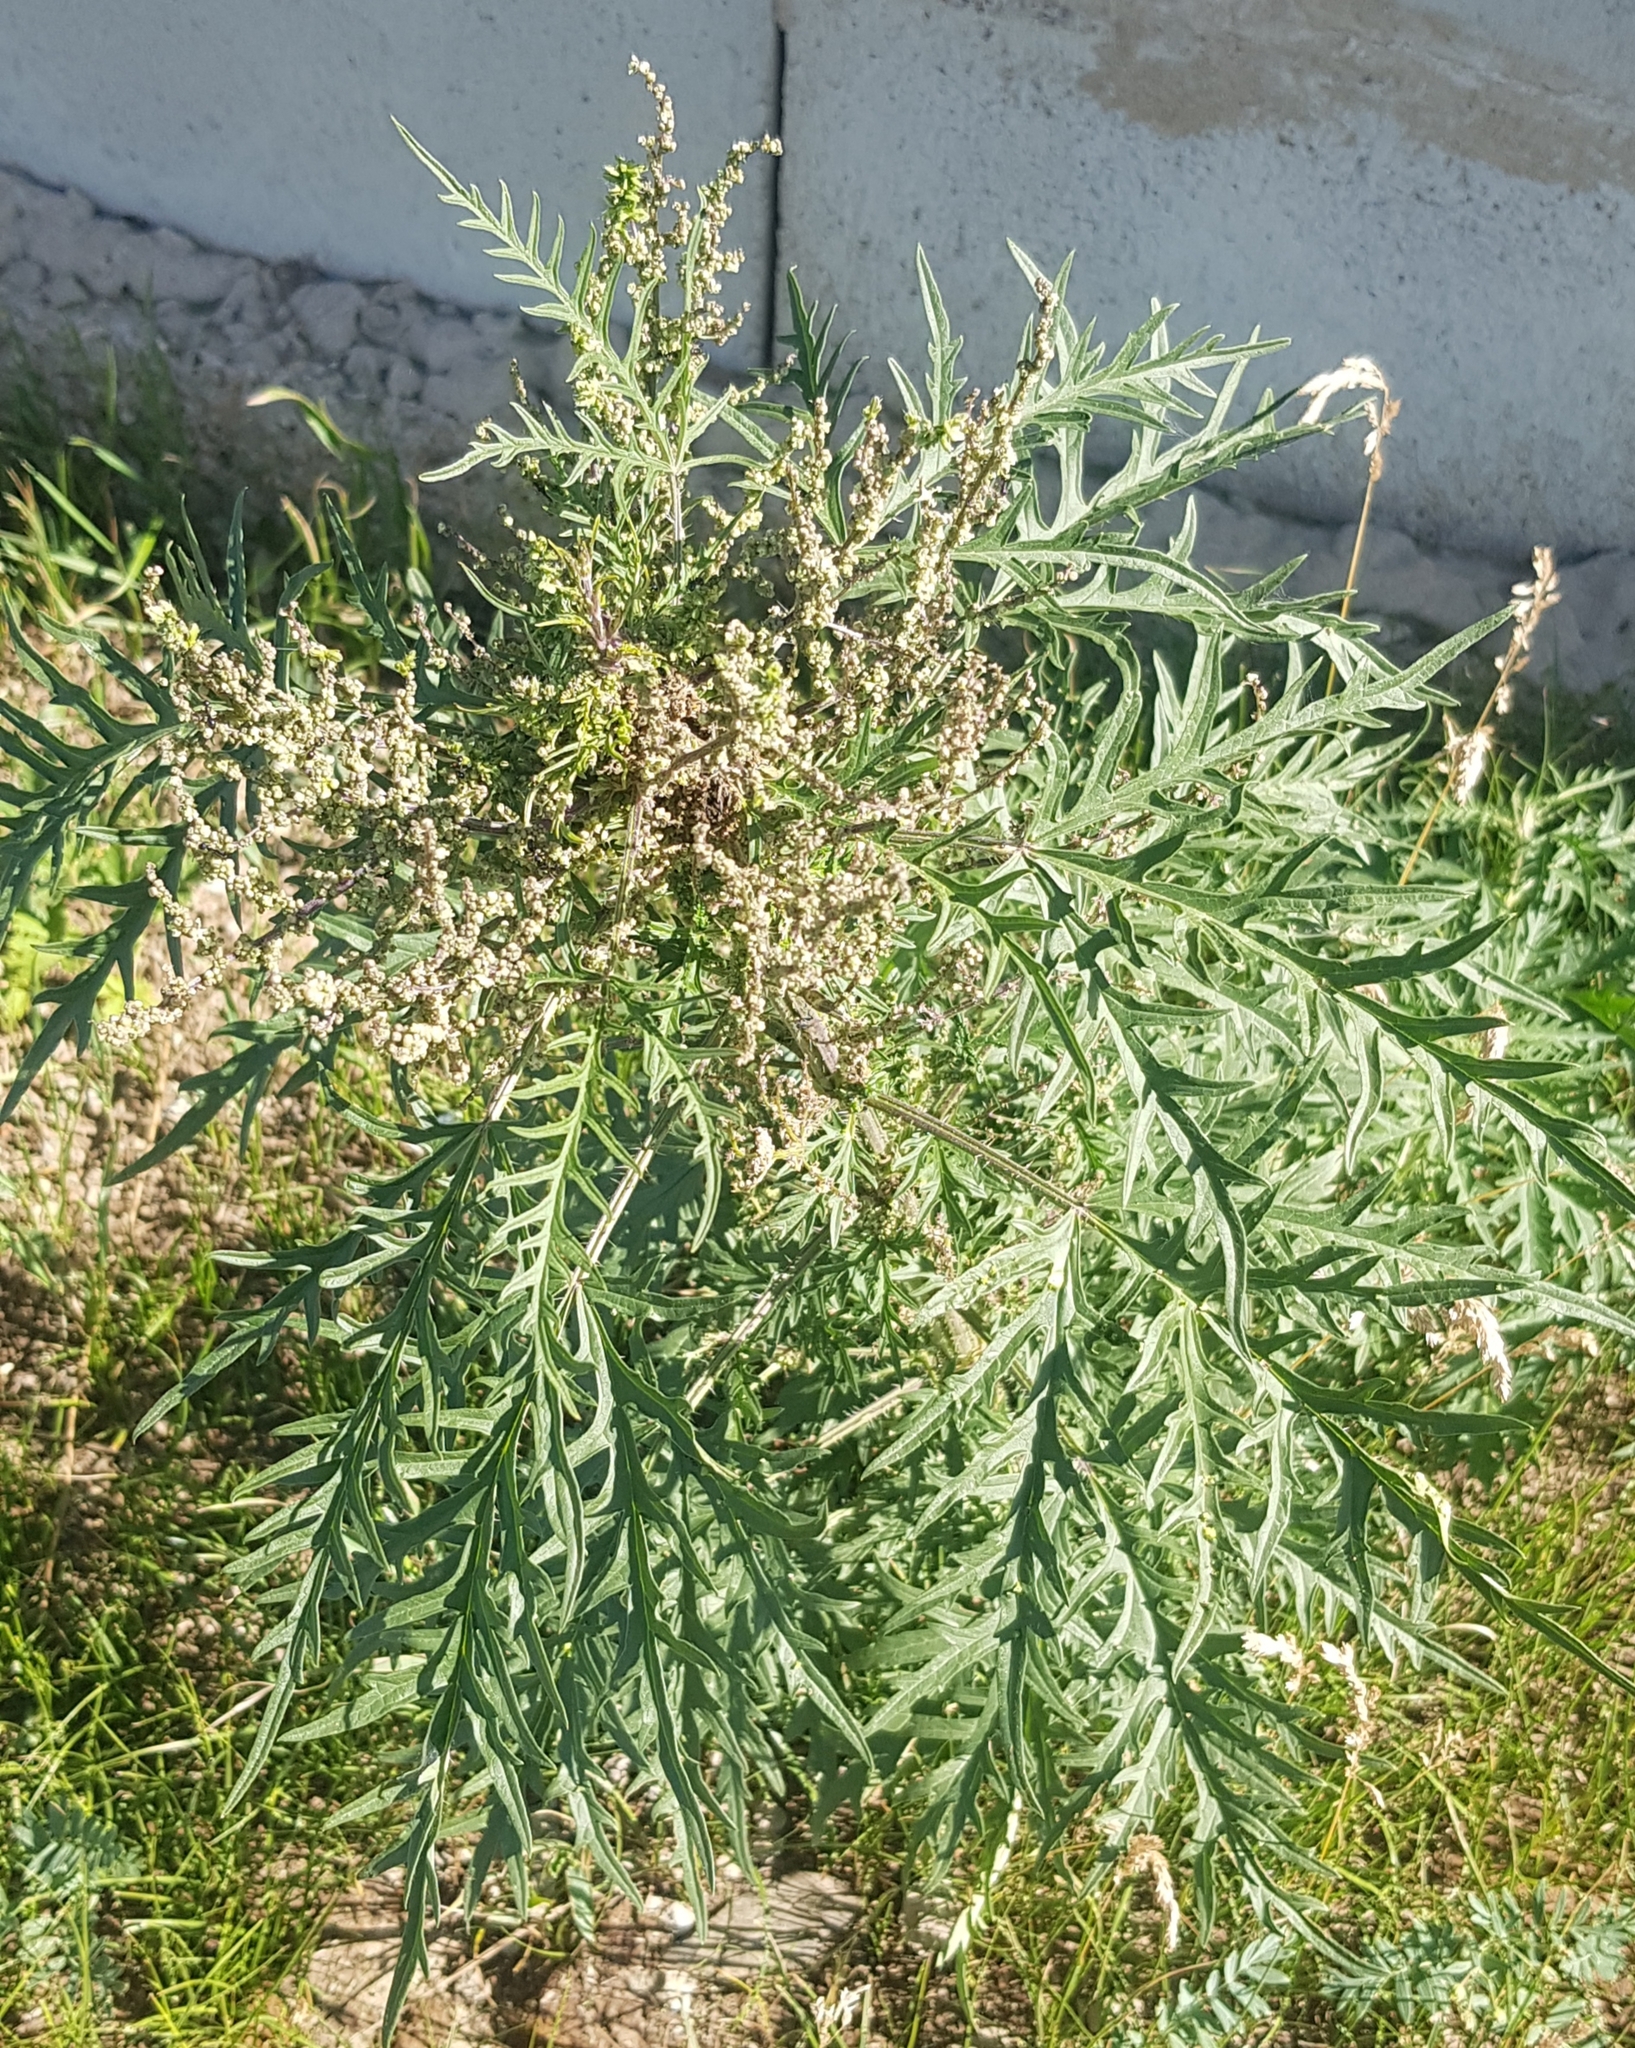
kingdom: Plantae
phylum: Tracheophyta
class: Magnoliopsida
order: Rosales
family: Urticaceae
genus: Urtica
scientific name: Urtica cannabina
